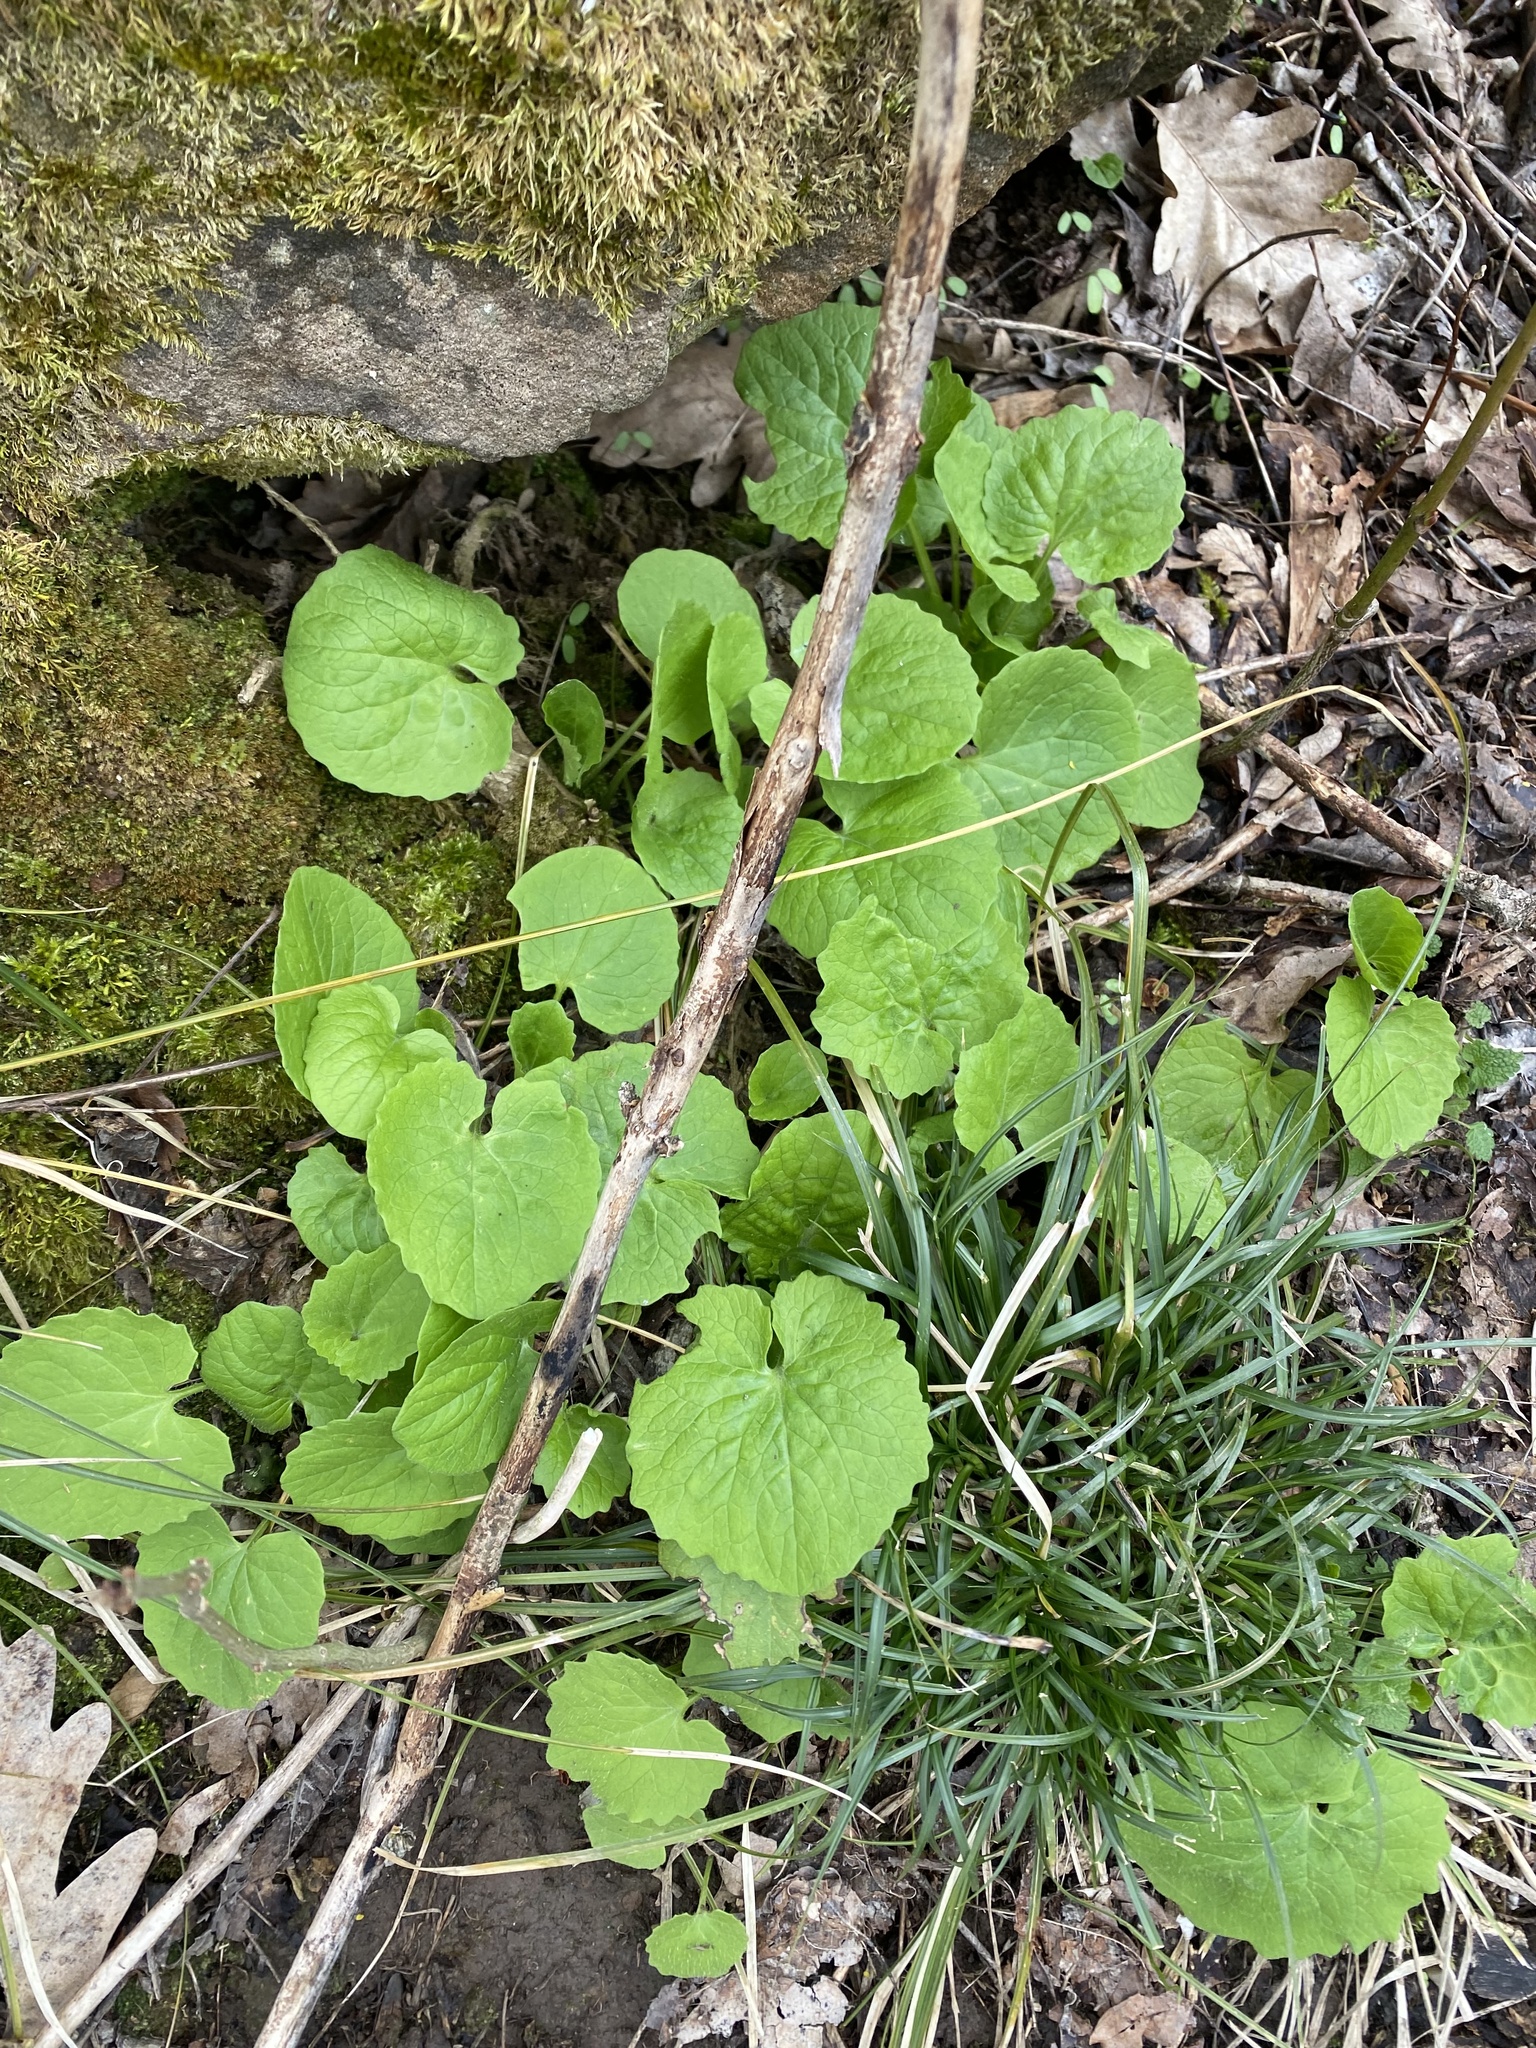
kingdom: Plantae
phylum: Tracheophyta
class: Magnoliopsida
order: Asterales
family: Asteraceae
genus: Doronicum
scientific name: Doronicum
